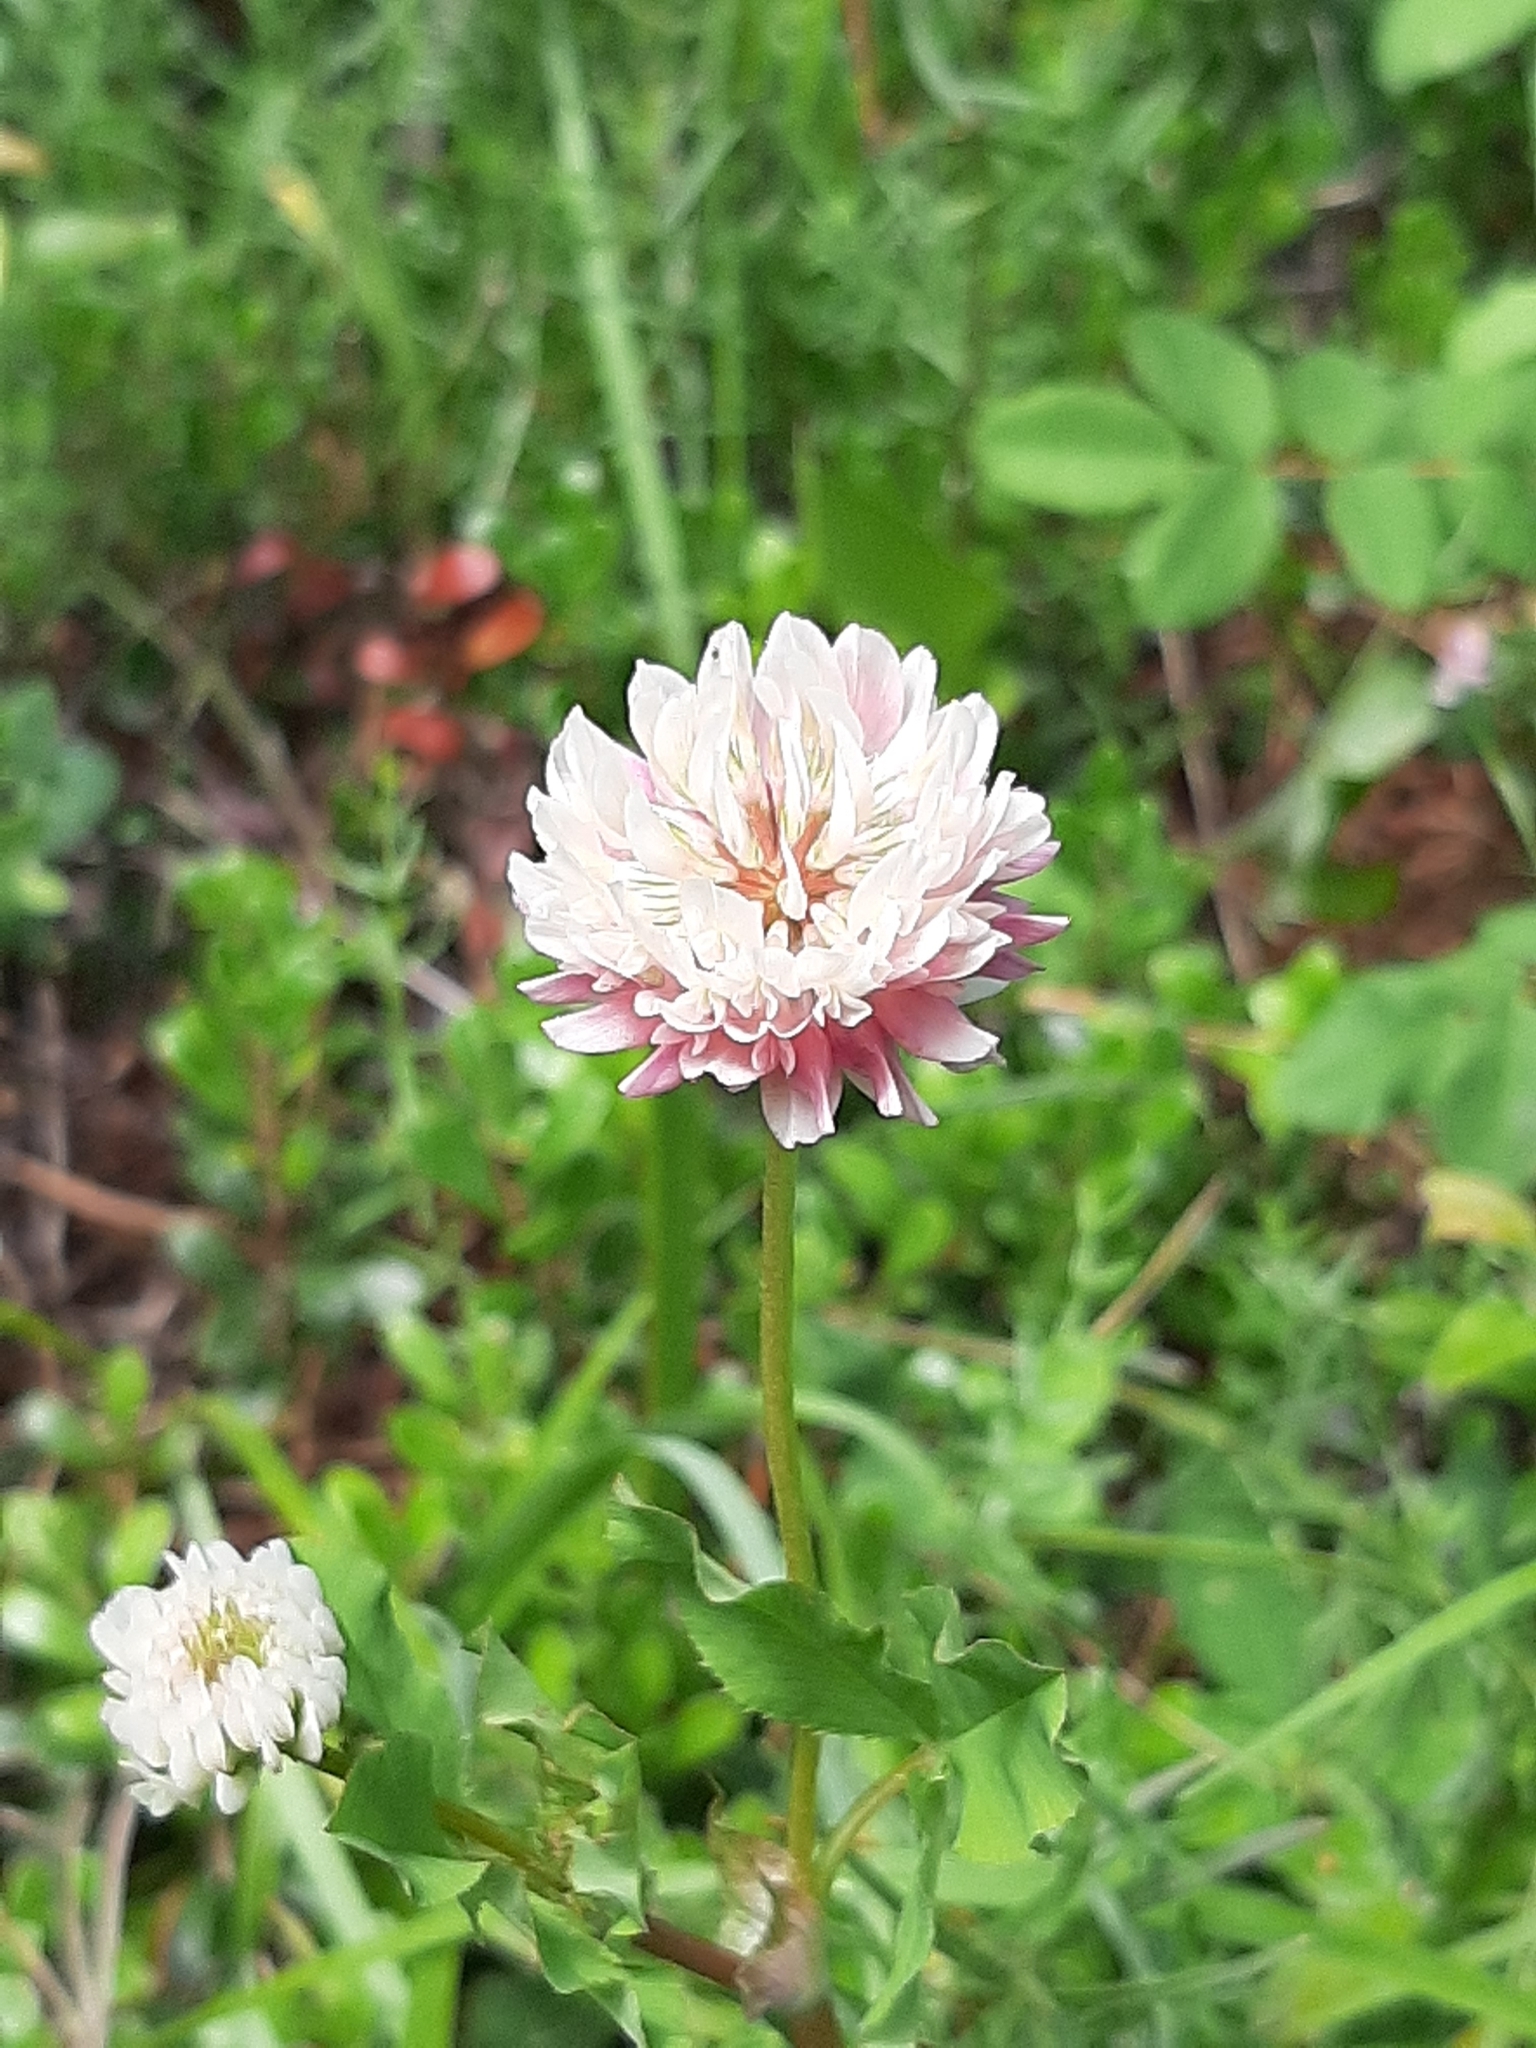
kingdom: Plantae
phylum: Tracheophyta
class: Magnoliopsida
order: Fabales
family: Fabaceae
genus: Trifolium
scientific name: Trifolium hybridum
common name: Alsike clover
